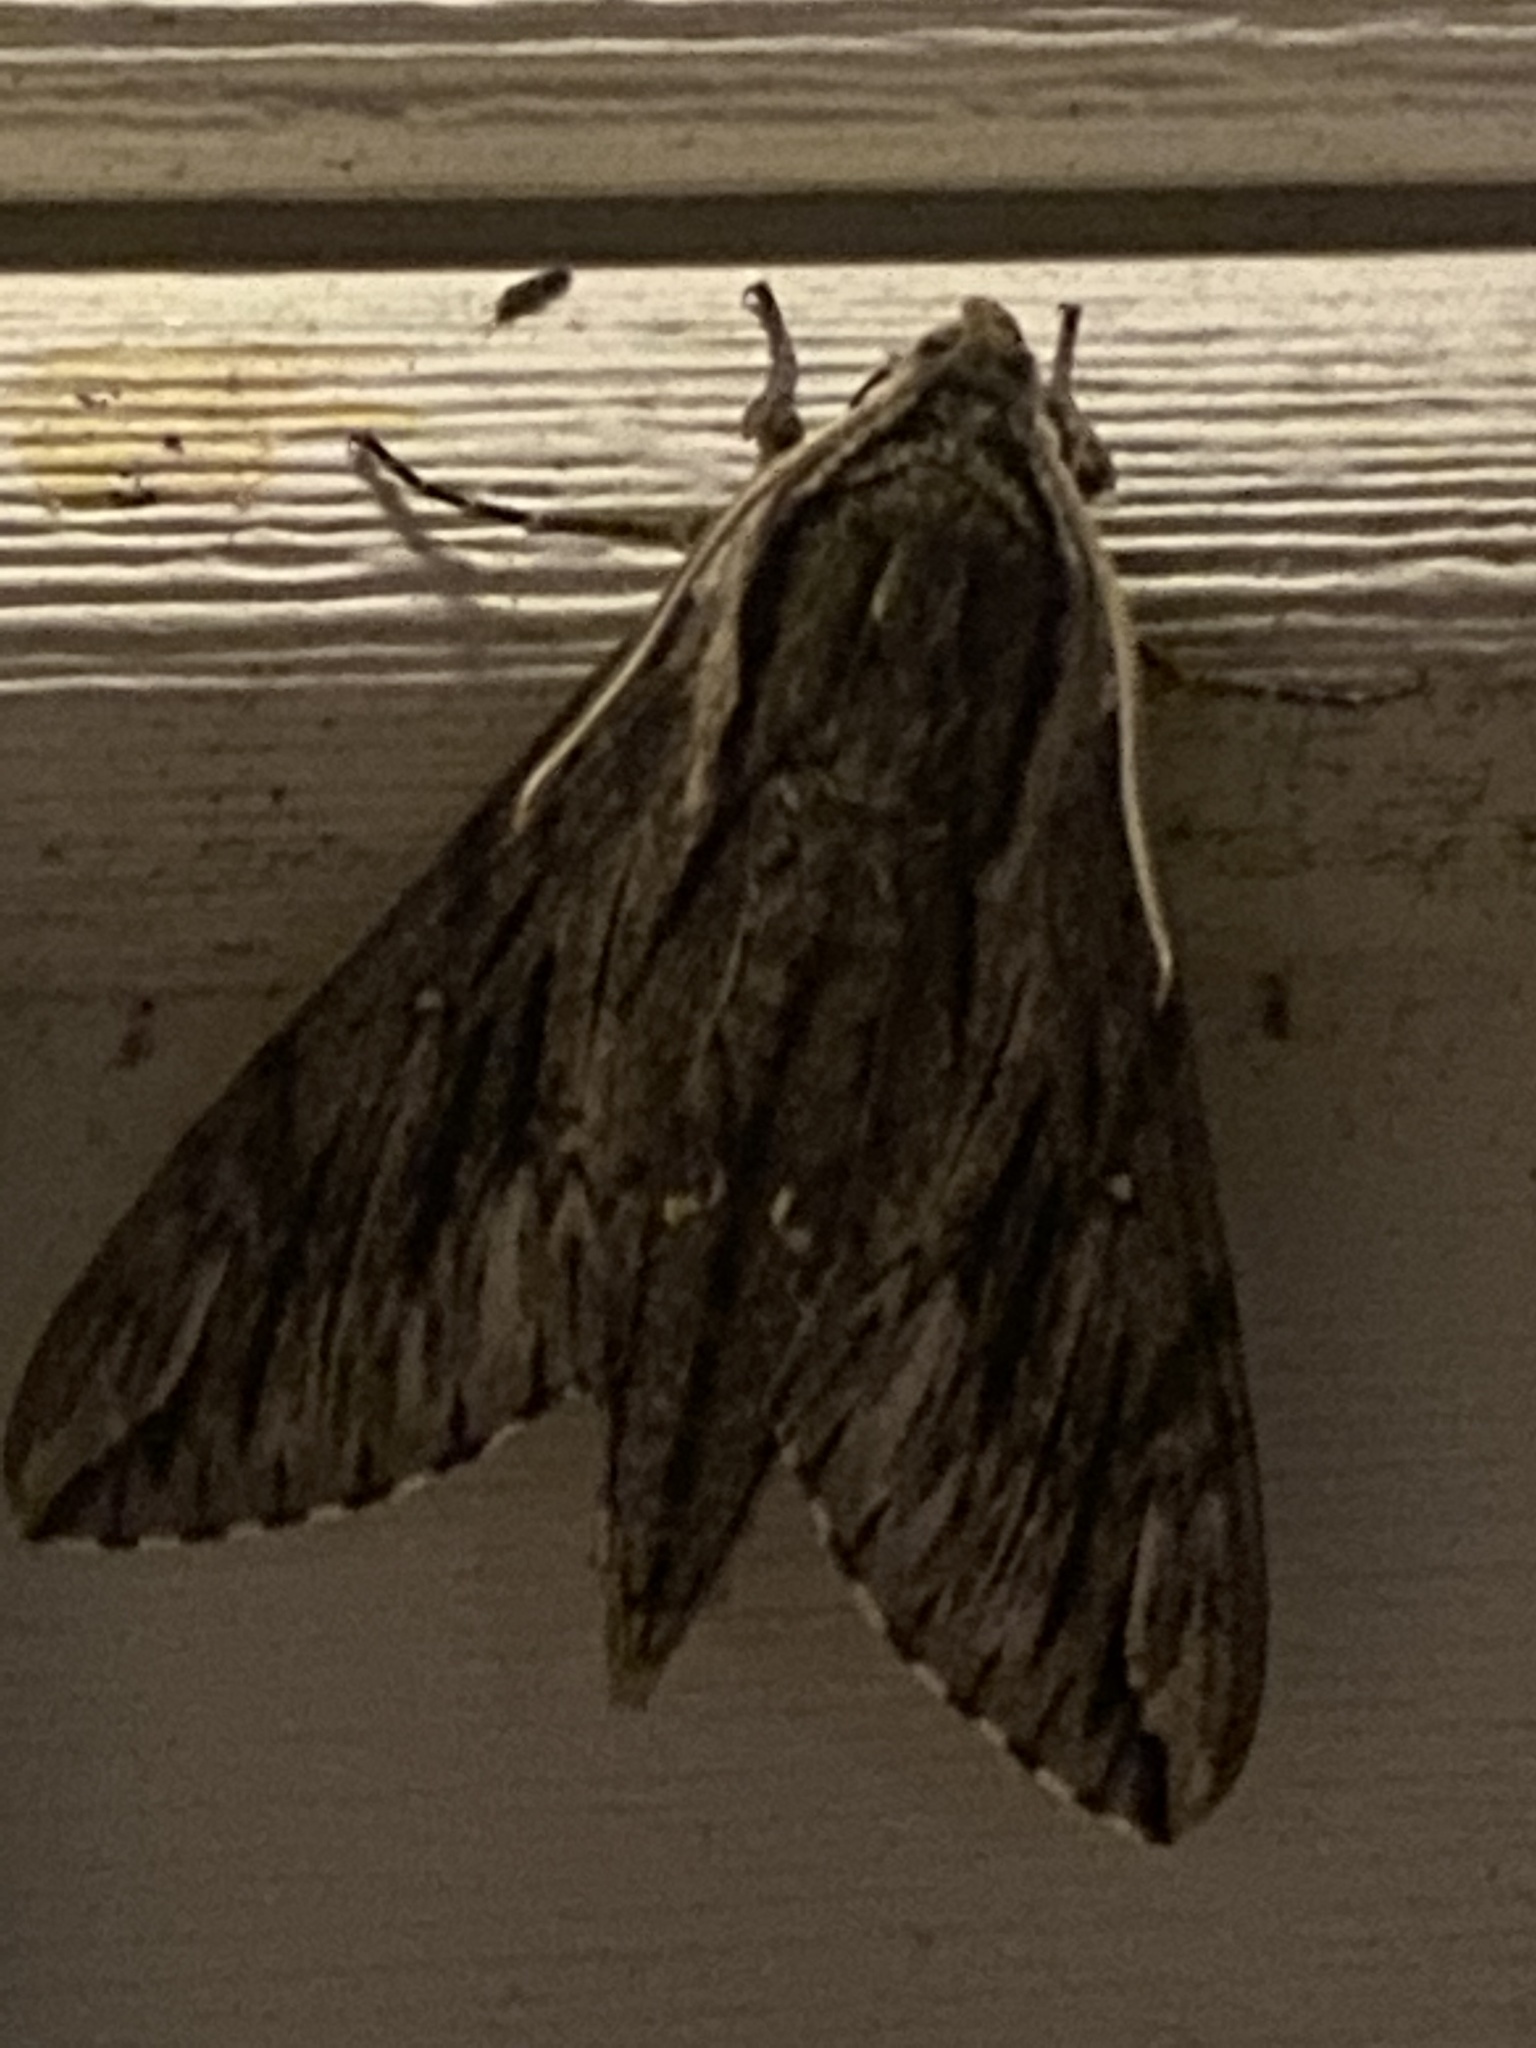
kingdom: Animalia
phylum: Arthropoda
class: Insecta
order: Lepidoptera
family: Sphingidae
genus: Paratrea
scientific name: Paratrea plebeja
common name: Plebian sphinx
